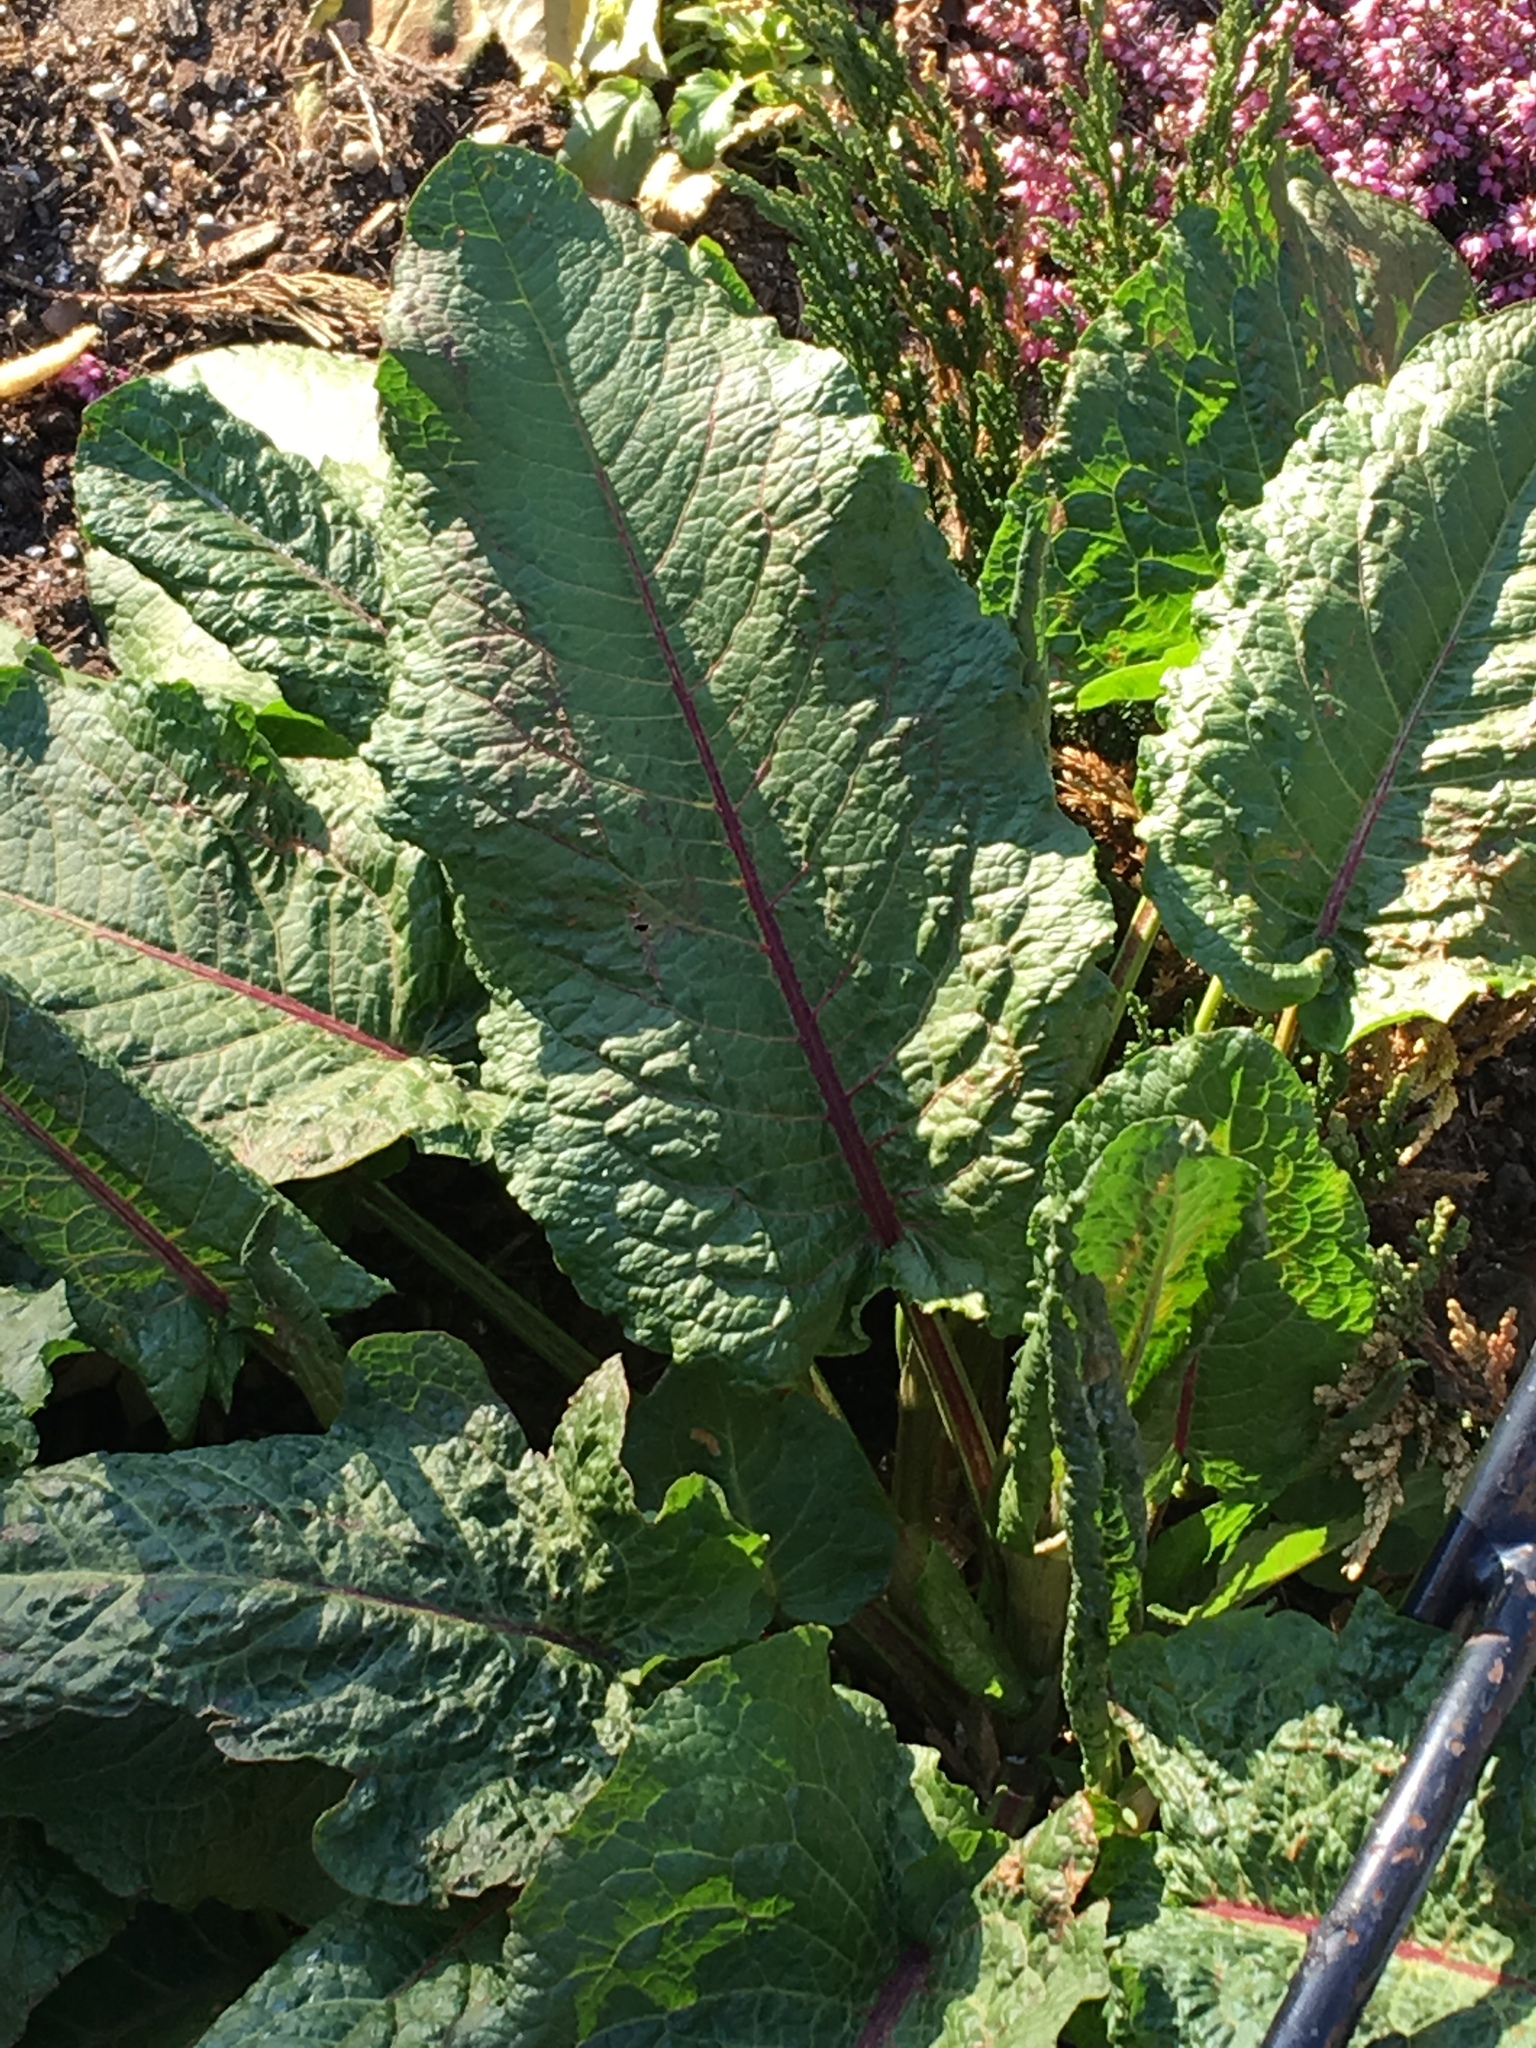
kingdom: Plantae
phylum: Tracheophyta
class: Magnoliopsida
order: Caryophyllales
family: Polygonaceae
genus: Rumex
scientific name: Rumex obtusifolius
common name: Bitter dock
